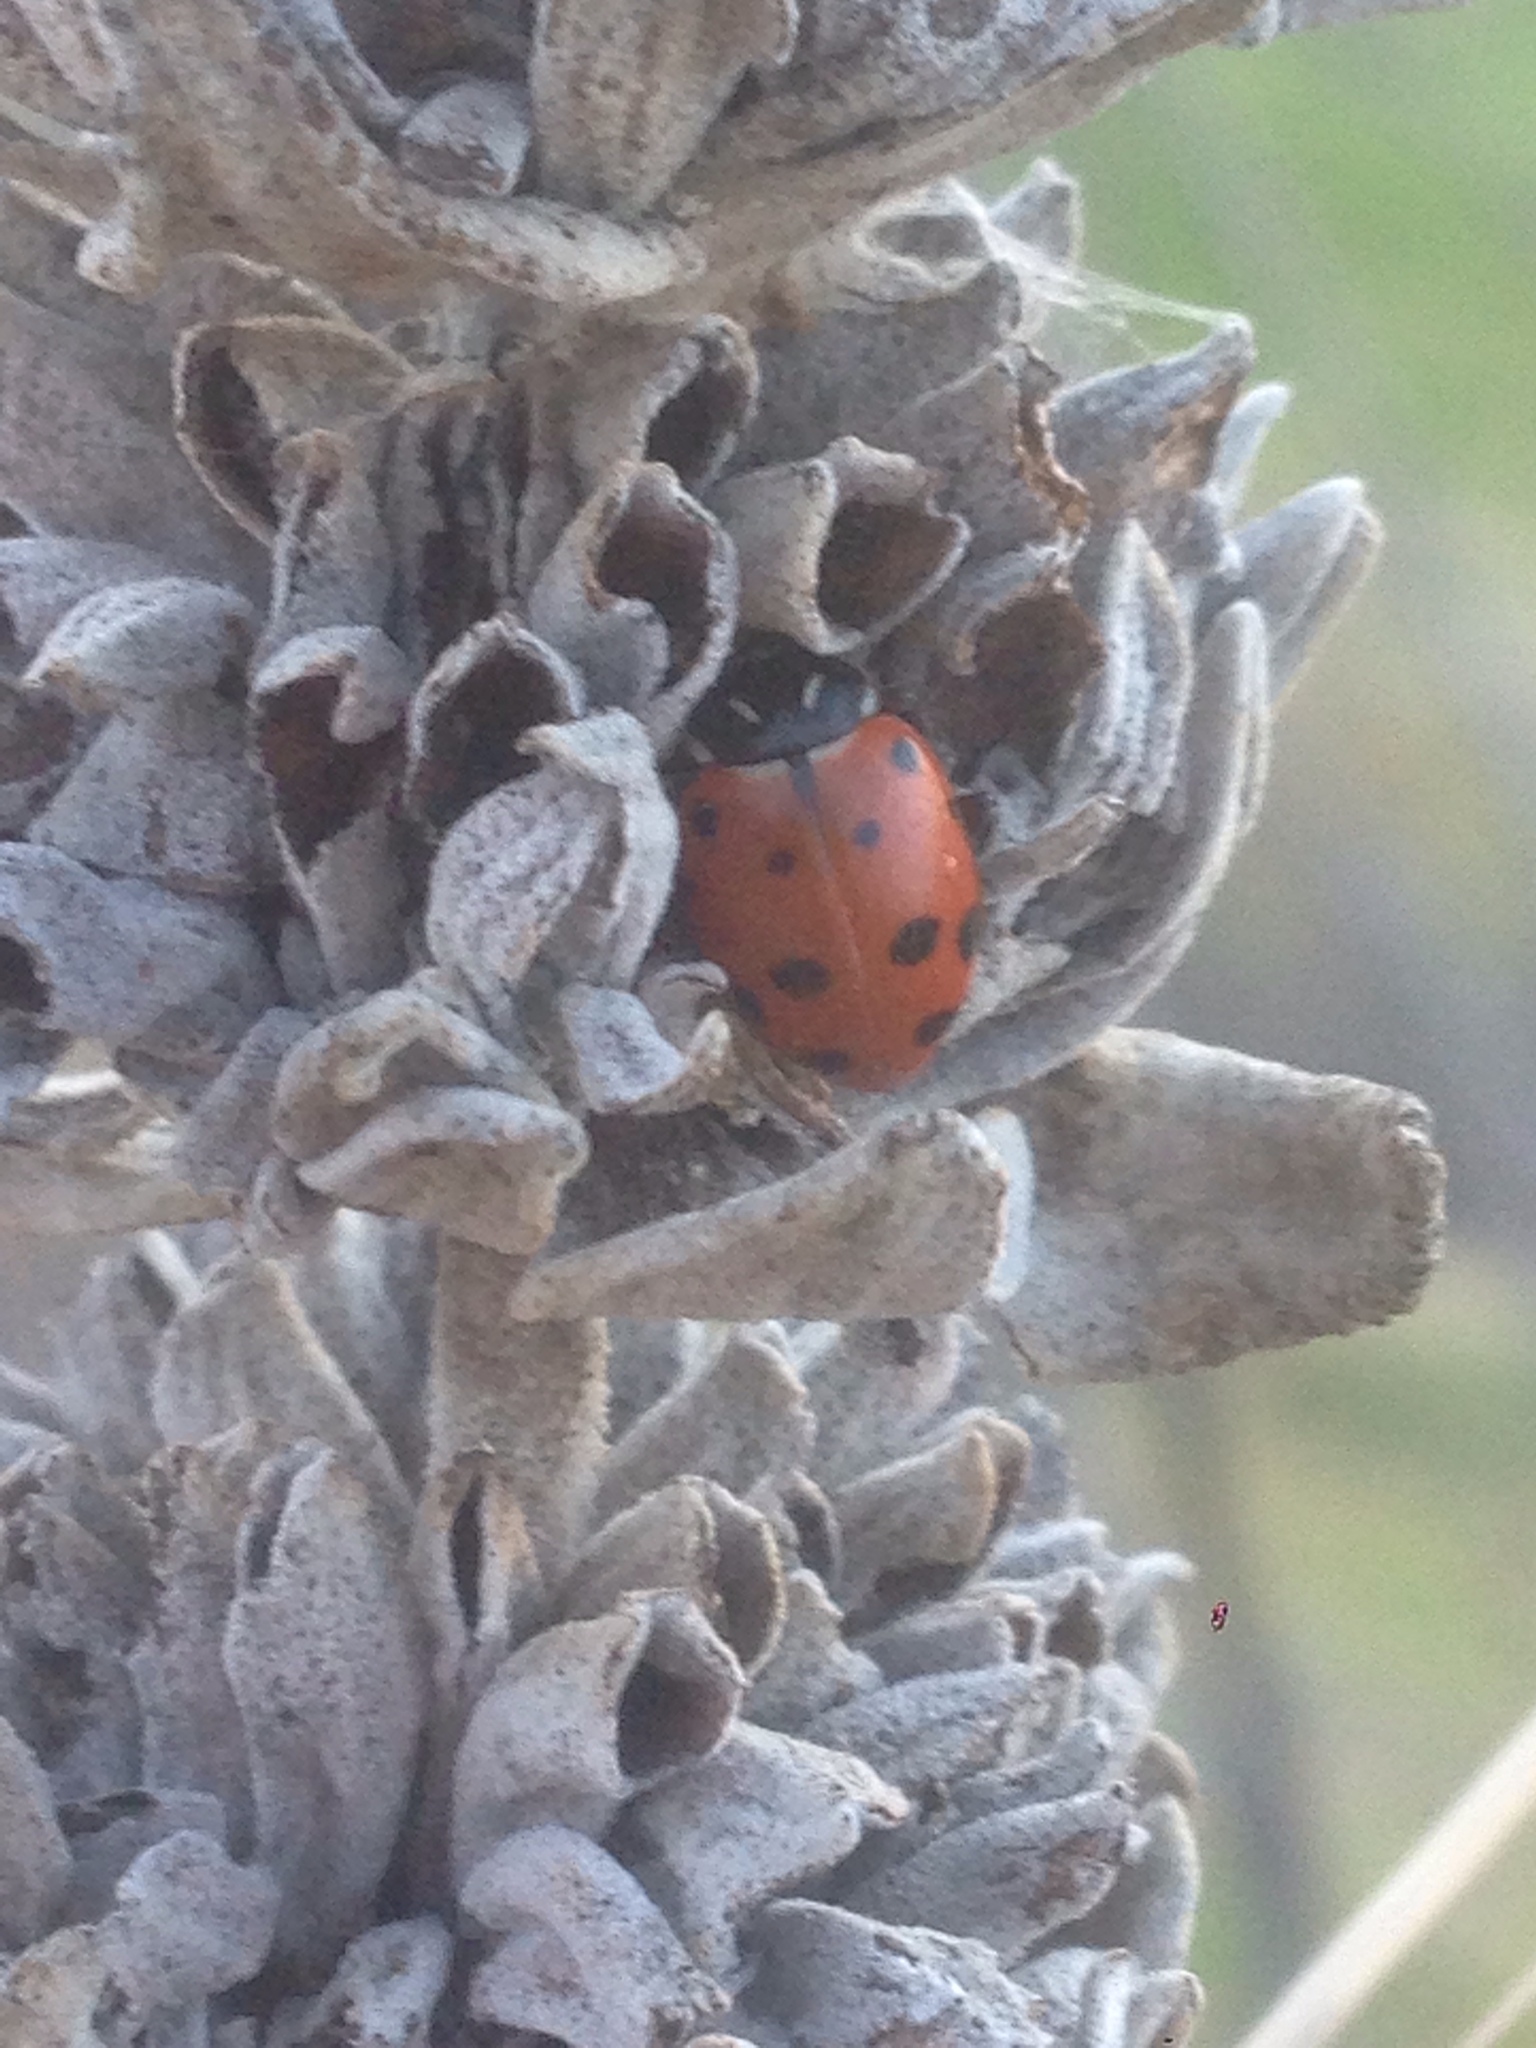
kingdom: Animalia
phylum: Arthropoda
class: Insecta
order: Coleoptera
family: Coccinellidae
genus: Hippodamia
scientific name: Hippodamia convergens
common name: Convergent lady beetle
